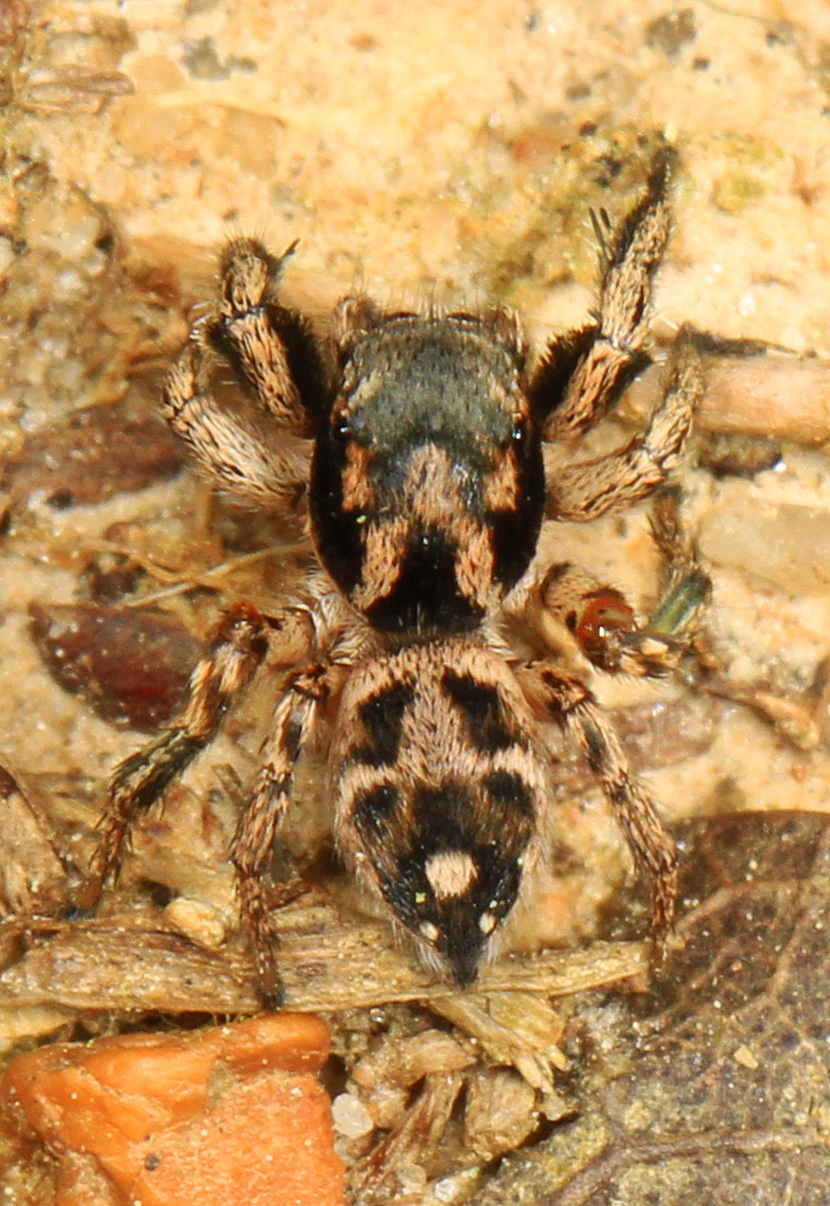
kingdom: Animalia
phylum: Arthropoda
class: Arachnida
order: Araneae
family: Salticidae
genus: Habronattus
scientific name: Habronattus coecatus
